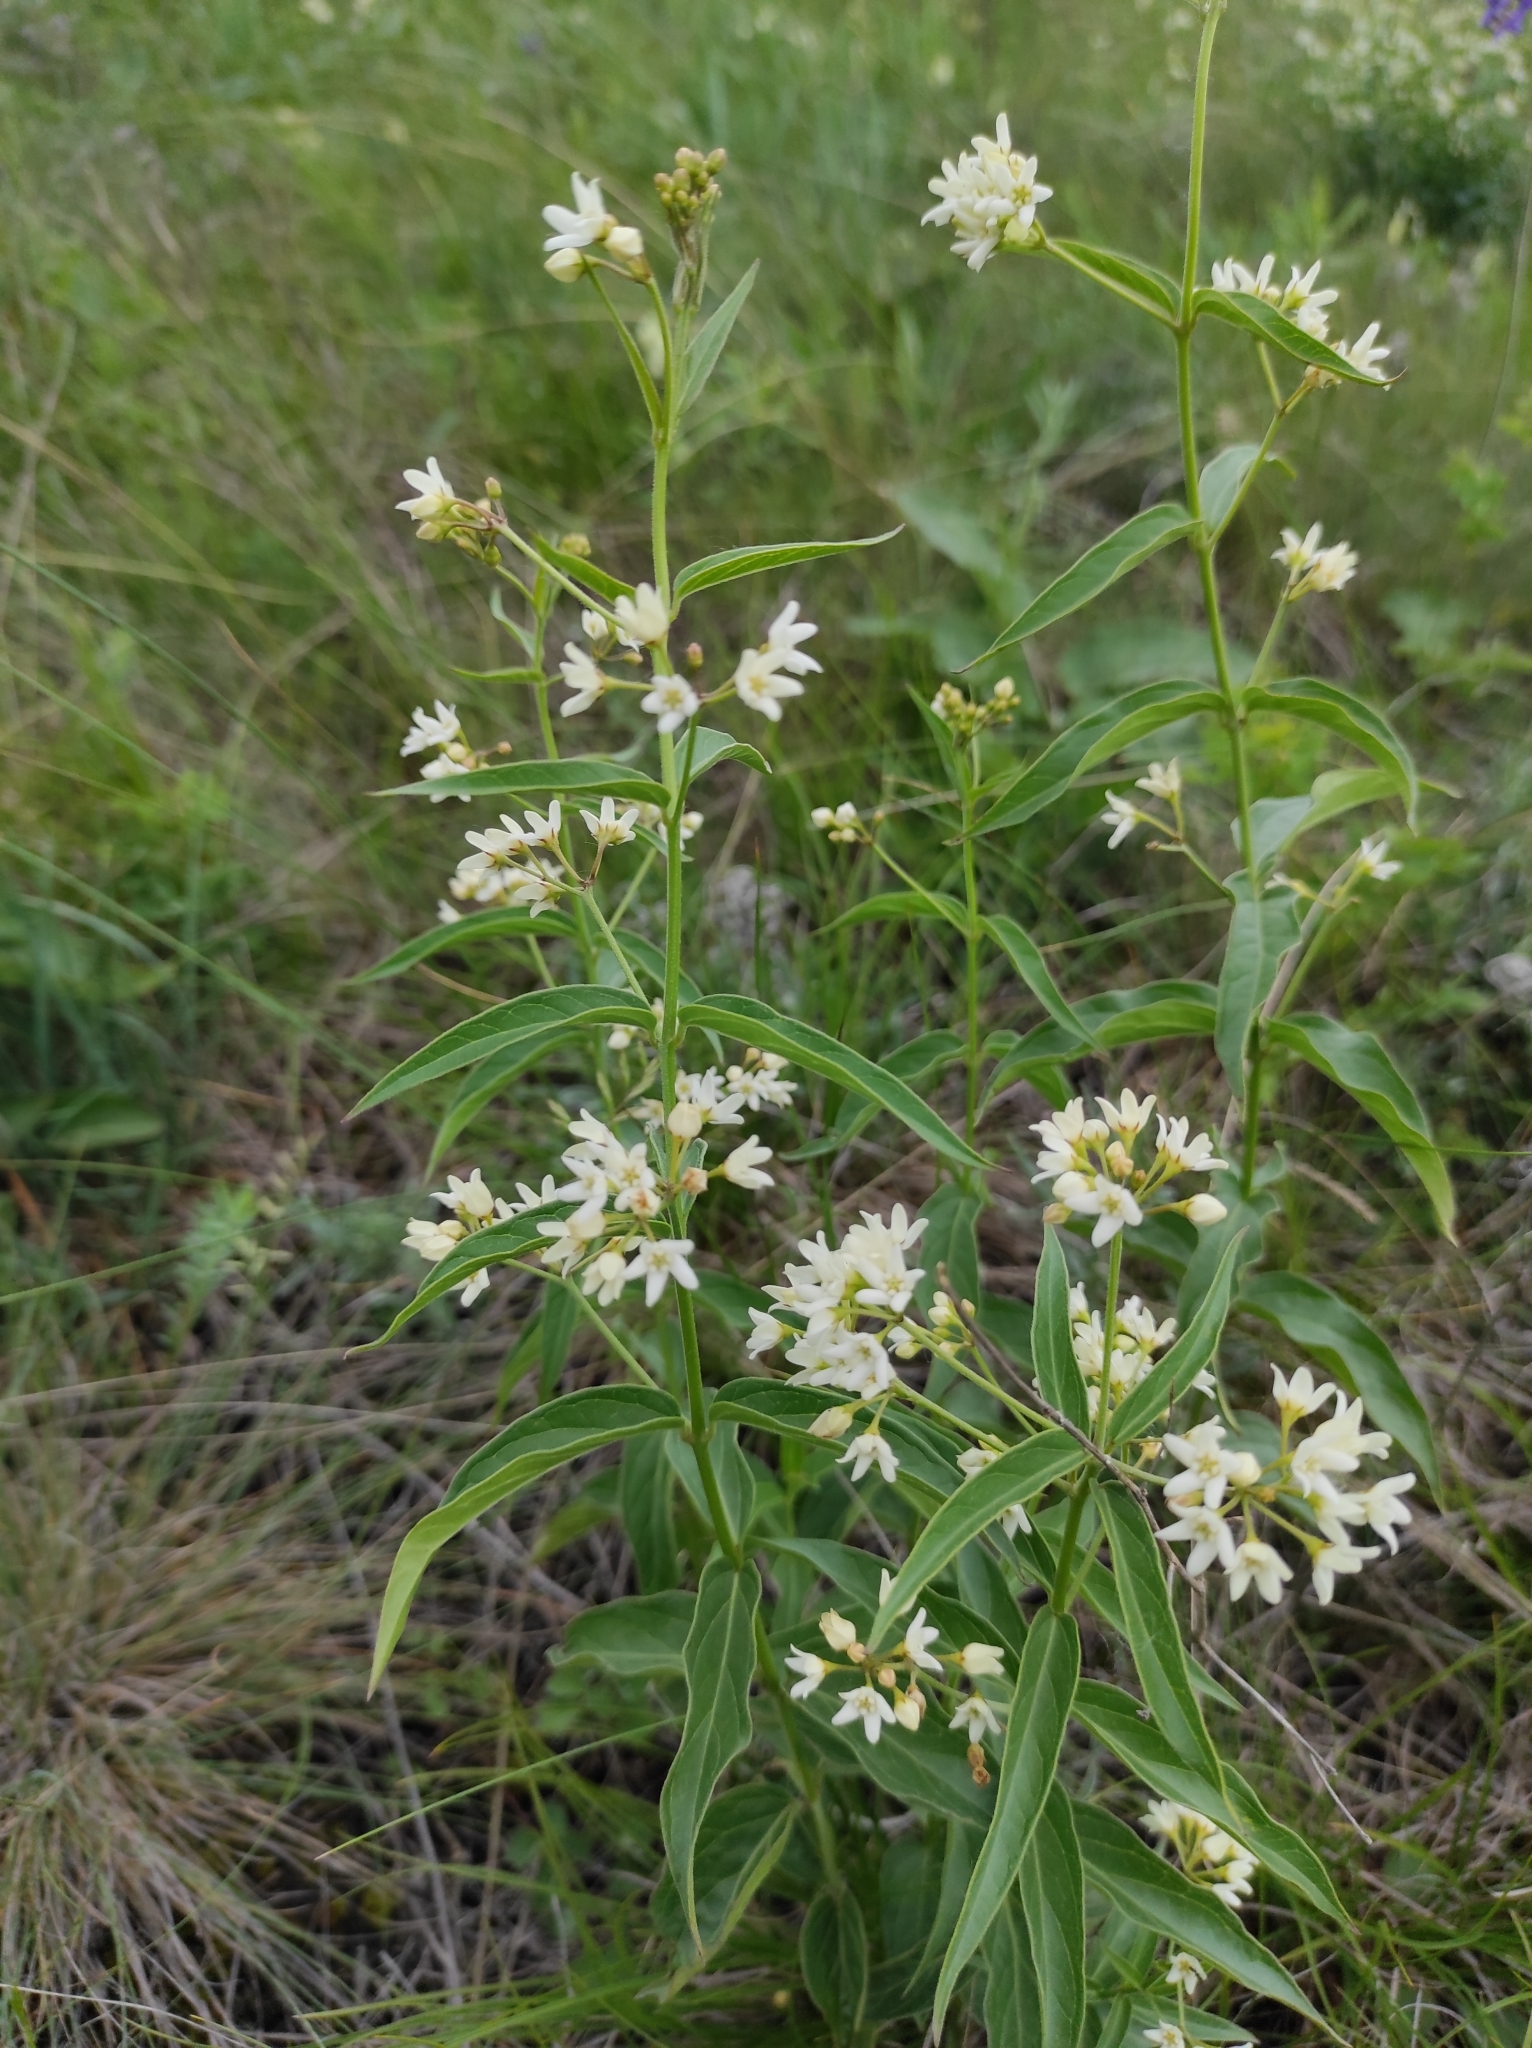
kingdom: Plantae
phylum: Tracheophyta
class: Magnoliopsida
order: Gentianales
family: Apocynaceae
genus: Vincetoxicum
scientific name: Vincetoxicum hirundinaria
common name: White swallowwort
